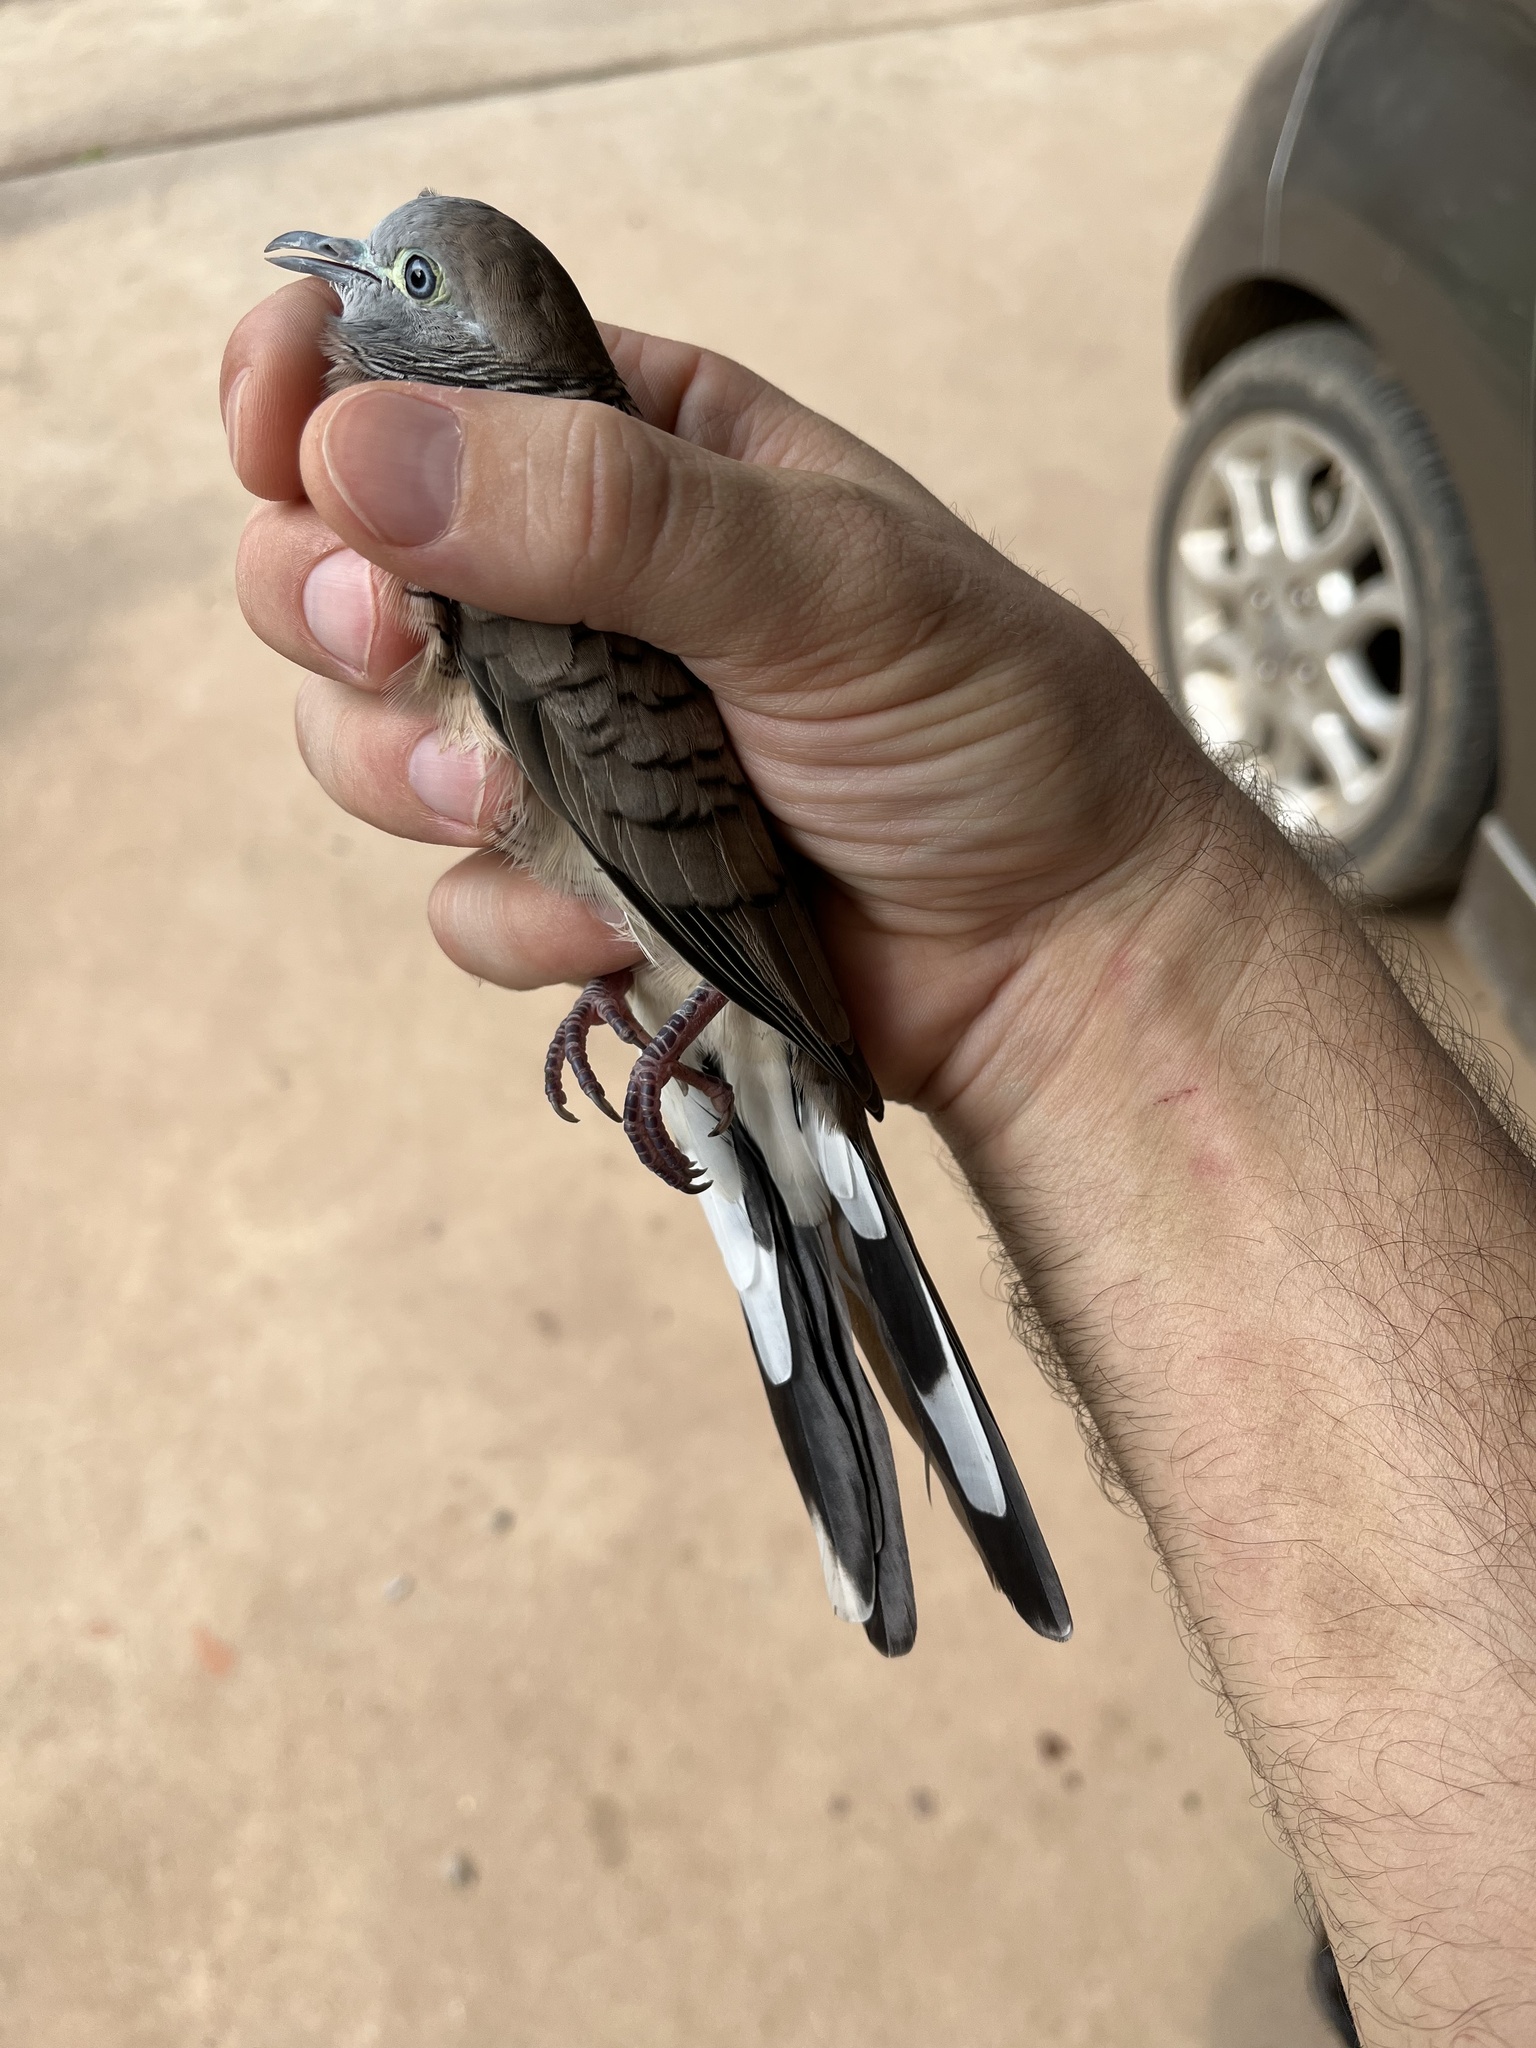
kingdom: Animalia
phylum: Chordata
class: Aves
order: Columbiformes
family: Columbidae
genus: Geopelia
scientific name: Geopelia striata
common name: Zebra dove
